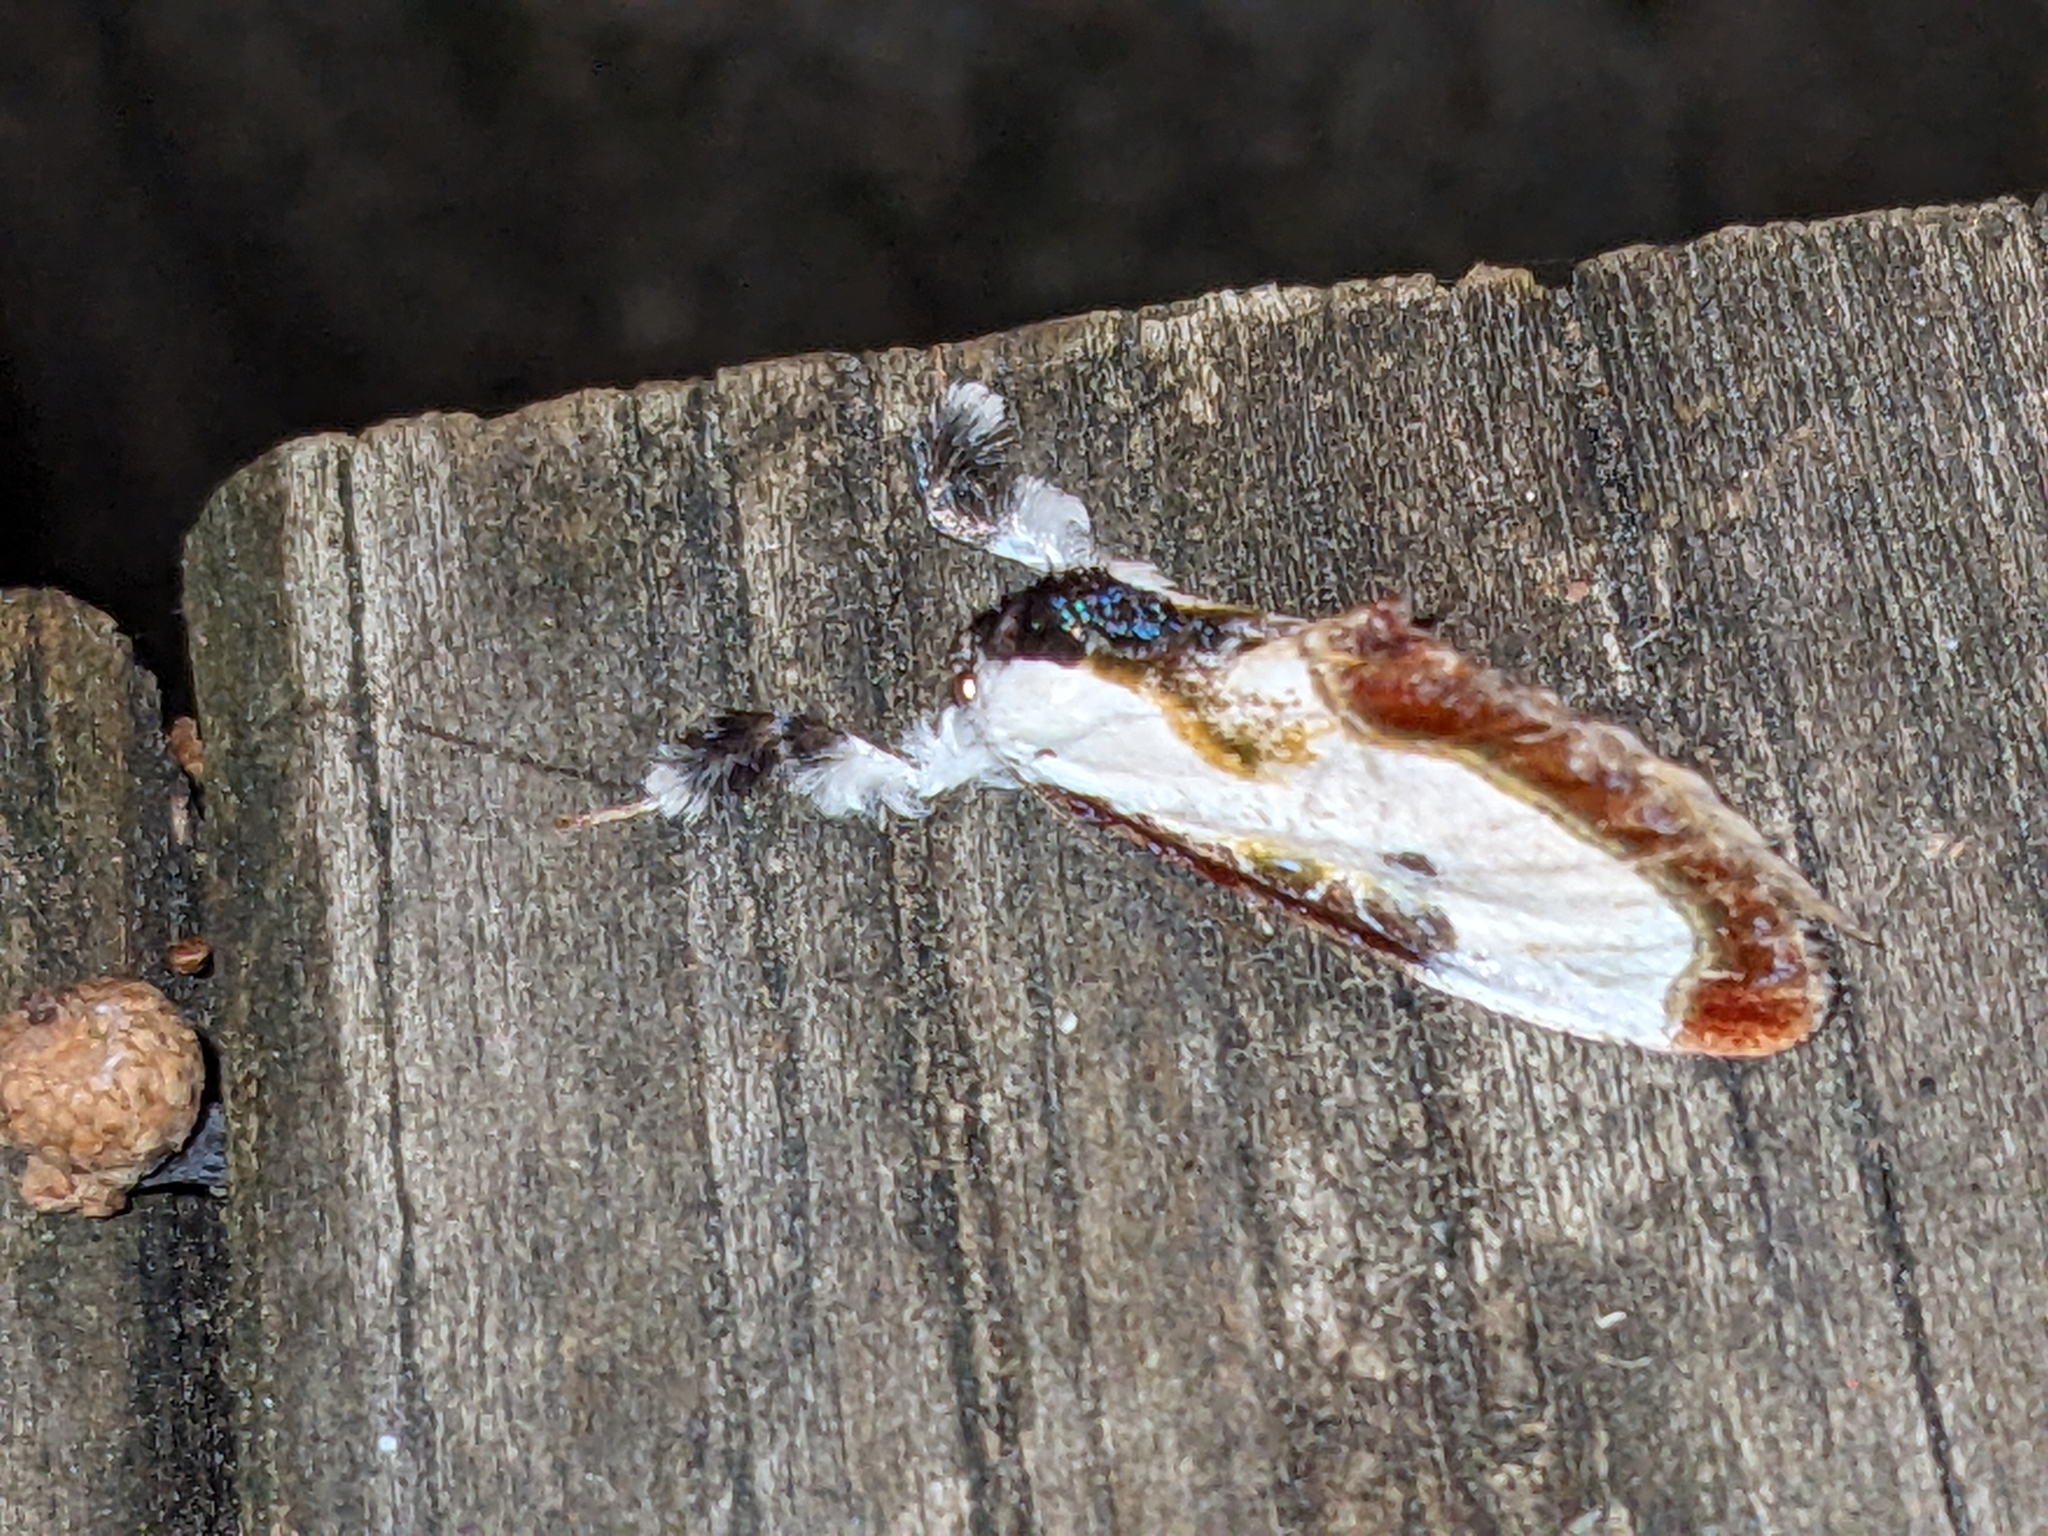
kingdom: Animalia
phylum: Arthropoda
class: Insecta
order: Lepidoptera
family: Noctuidae
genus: Eudryas
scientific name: Eudryas grata
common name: Beautiful wood-nymph
